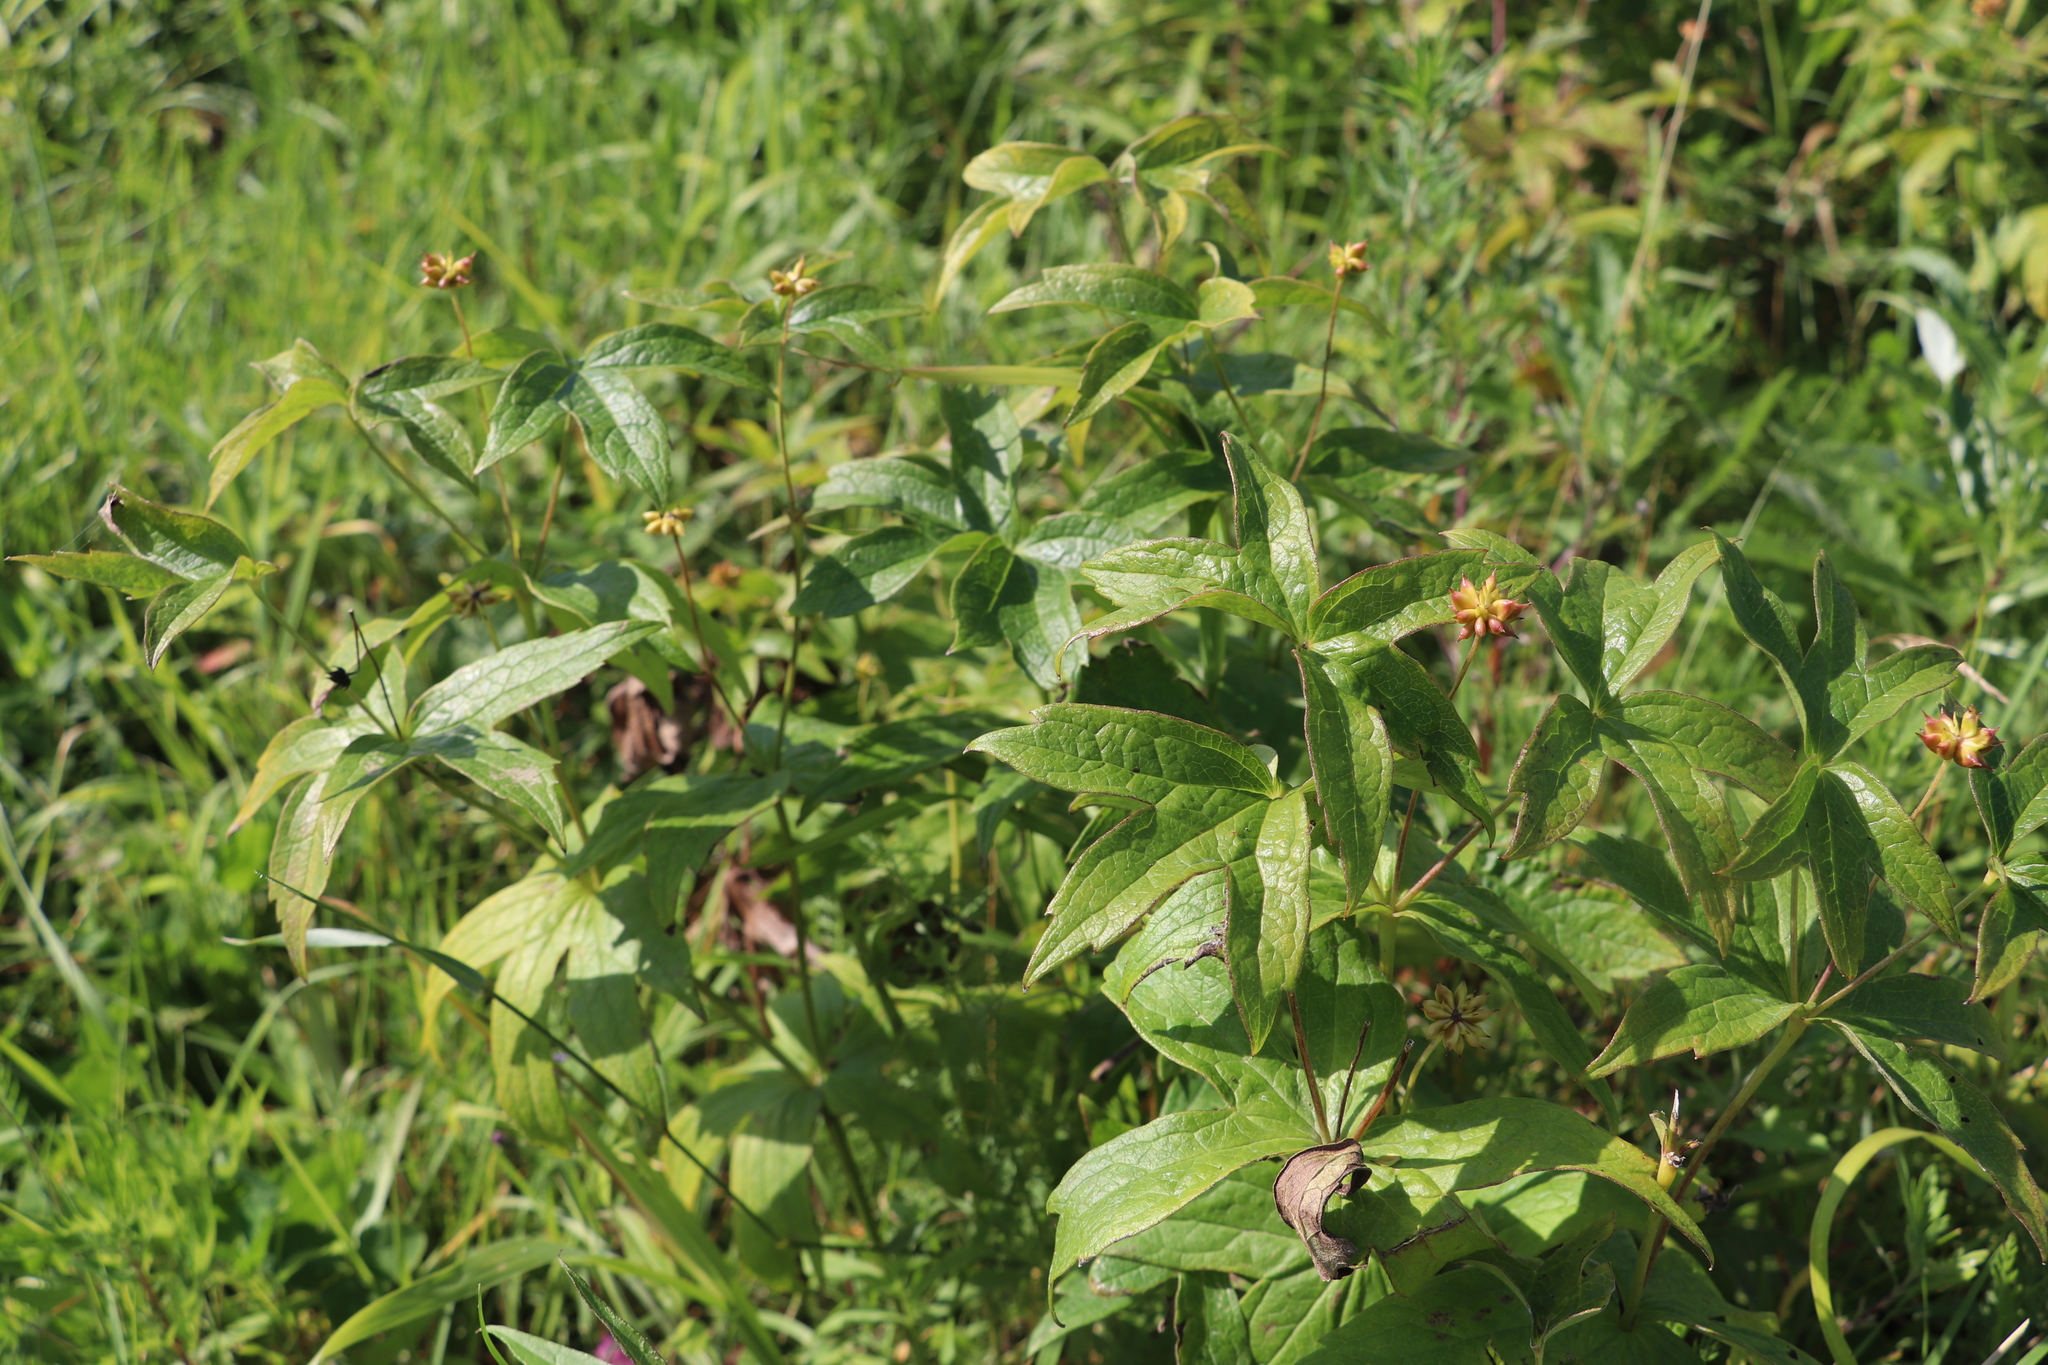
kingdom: Plantae
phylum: Tracheophyta
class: Magnoliopsida
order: Ranunculales
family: Ranunculaceae
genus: Anemonastrum
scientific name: Anemonastrum dichotomum
